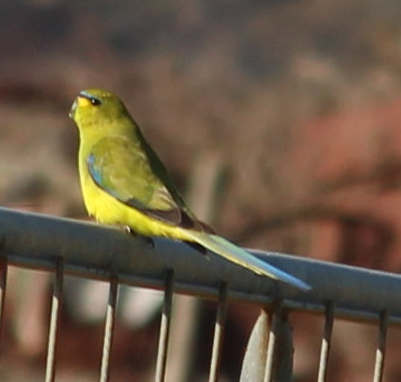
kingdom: Animalia
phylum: Chordata
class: Aves
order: Psittaciformes
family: Psittacidae
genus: Neophema
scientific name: Neophema elegans
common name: Elegant parrot
